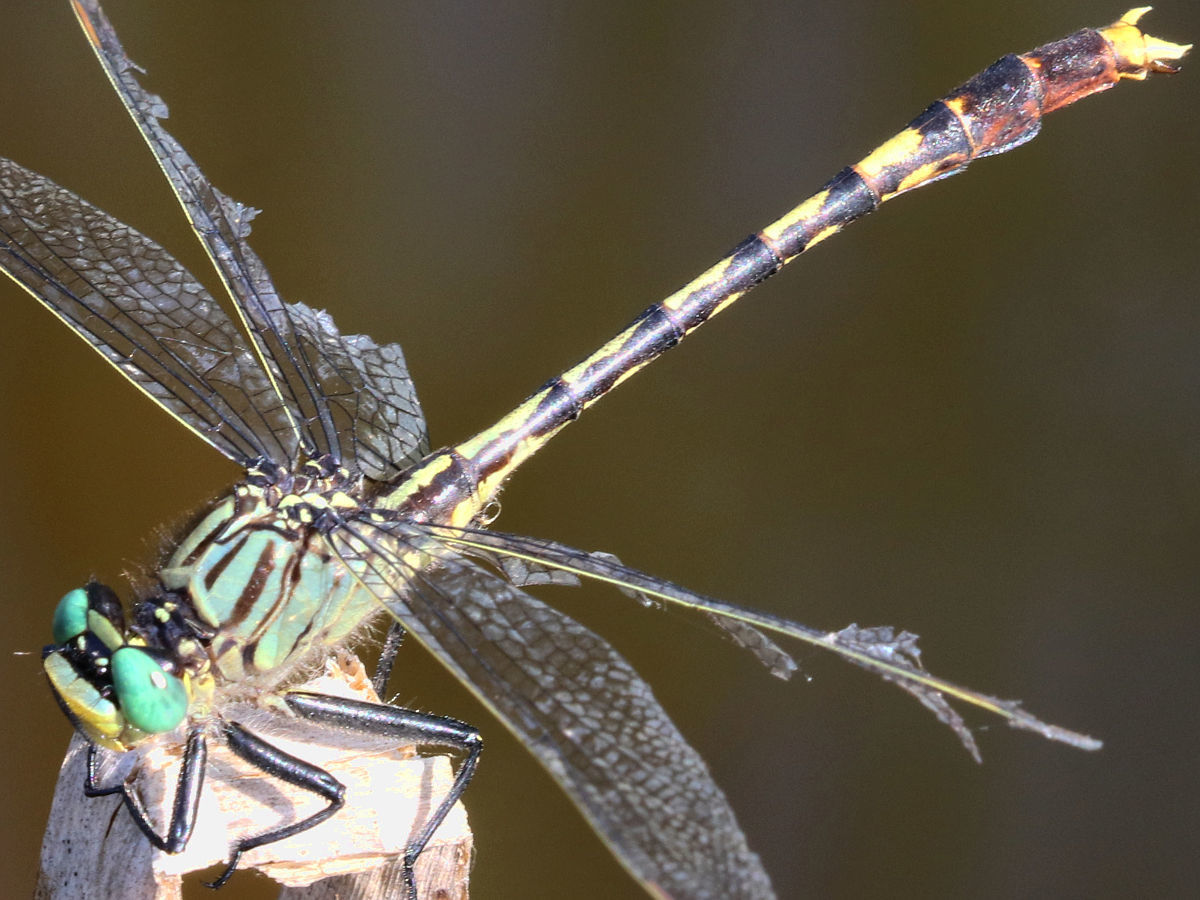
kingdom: Animalia
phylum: Arthropoda
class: Insecta
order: Odonata
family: Gomphidae
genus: Arigomphus
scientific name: Arigomphus villosipes
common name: Unicorn clubtail
